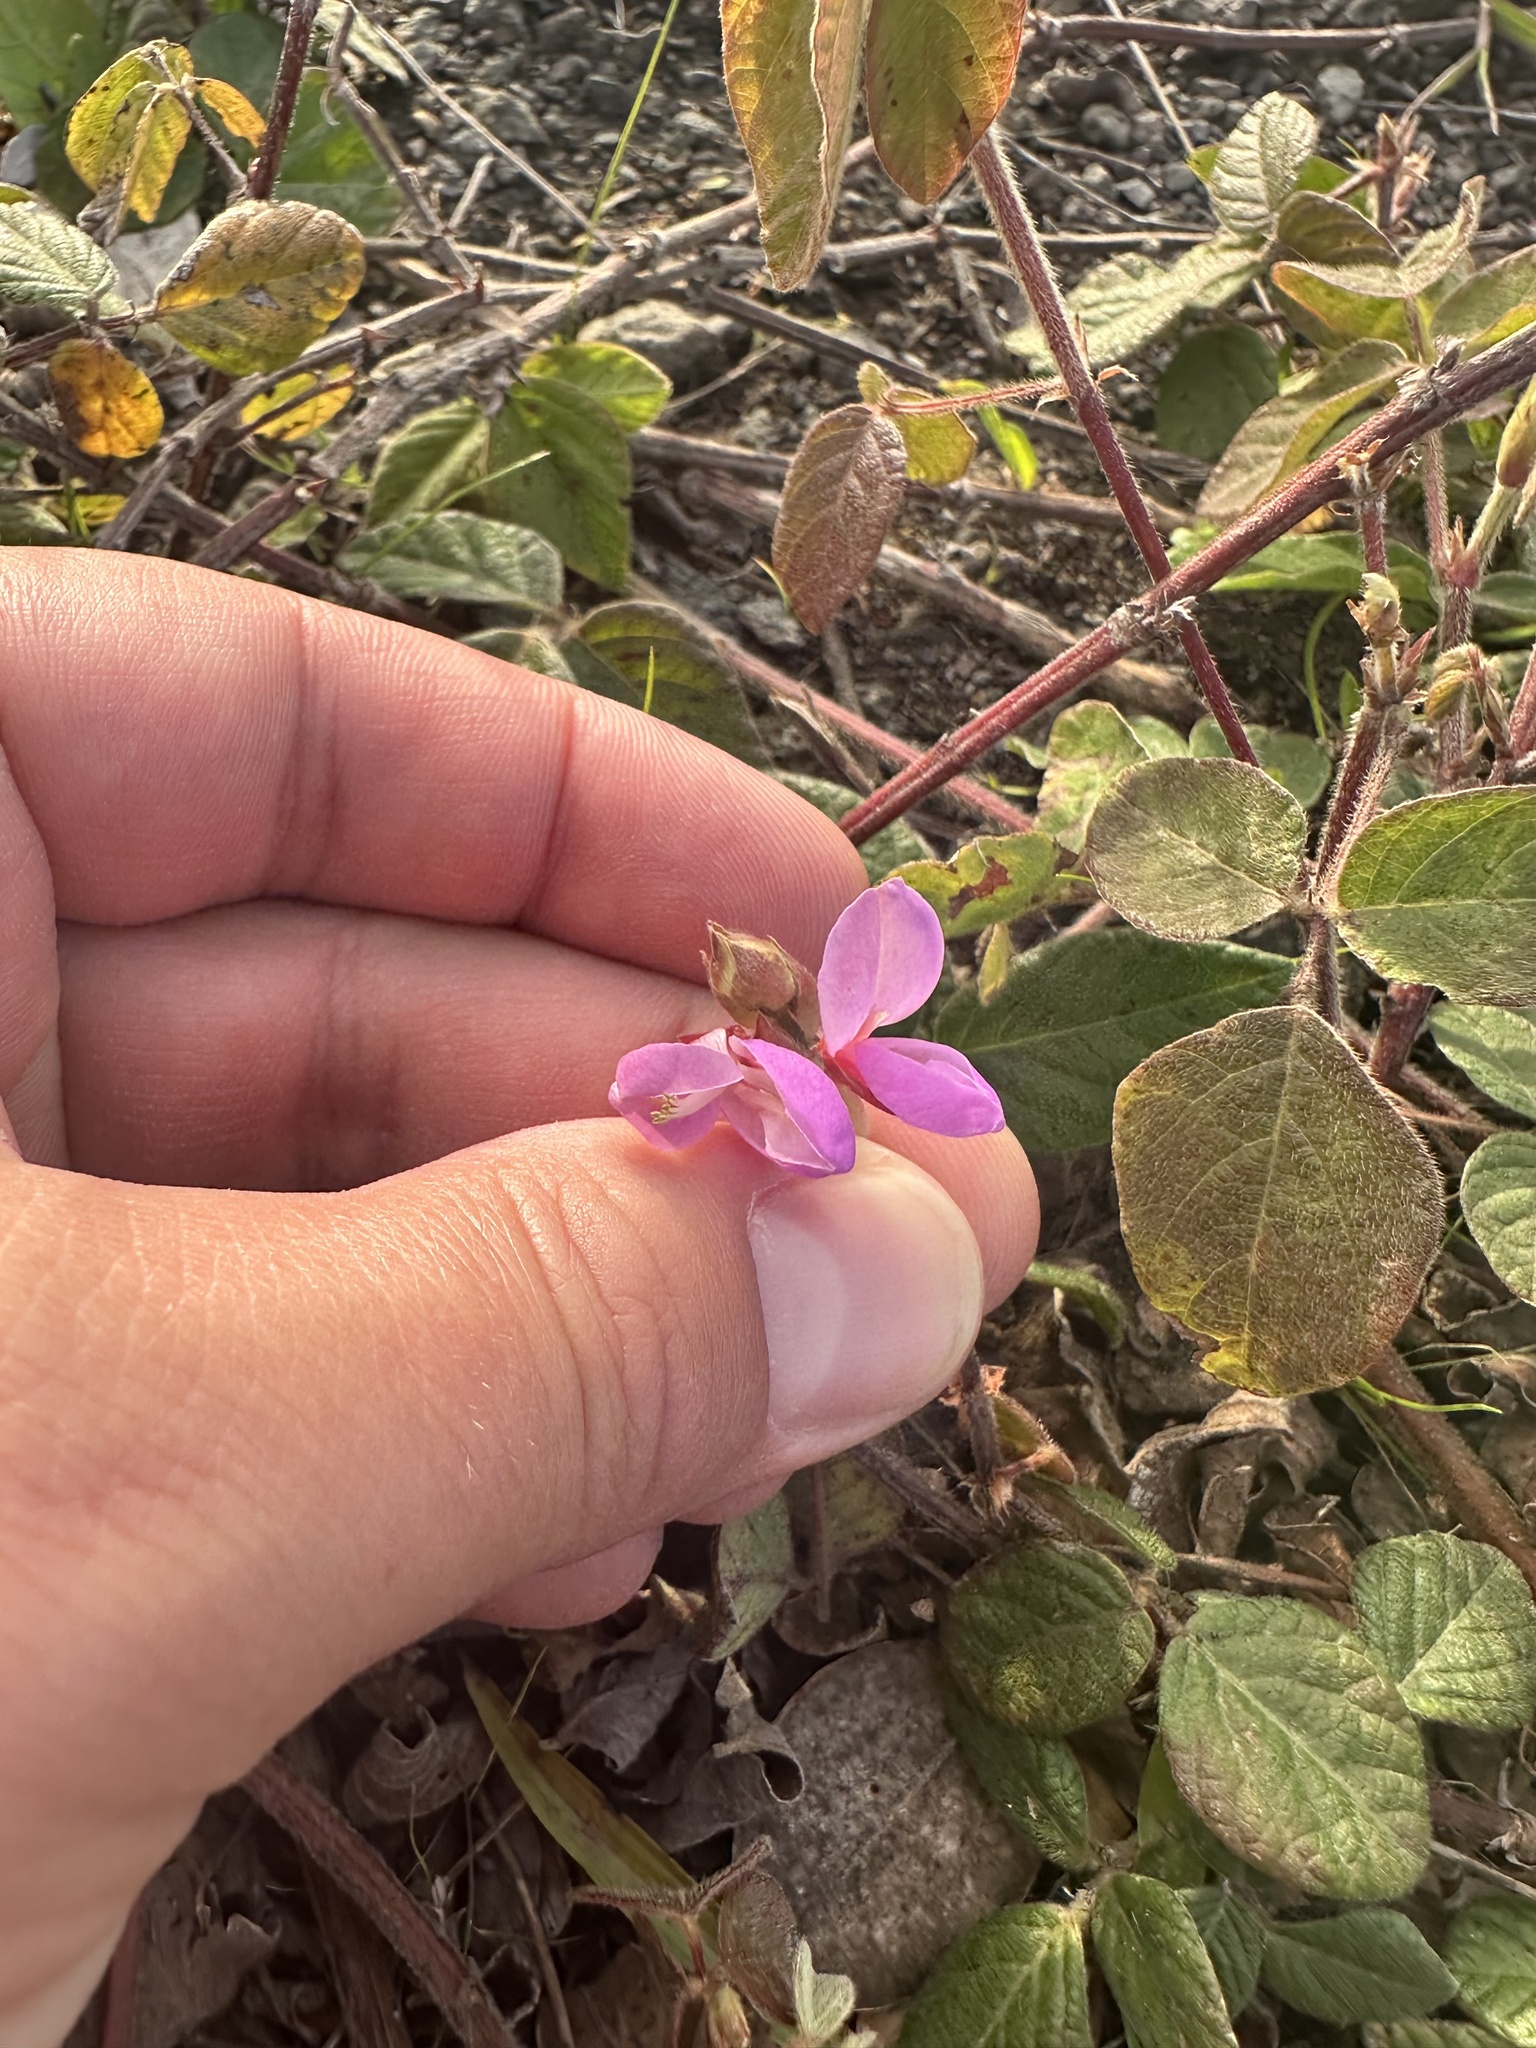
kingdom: Plantae
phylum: Tracheophyta
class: Magnoliopsida
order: Fabales
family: Fabaceae
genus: Desmodium
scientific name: Desmodium intortum
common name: Greenleaf ticktrefoil
